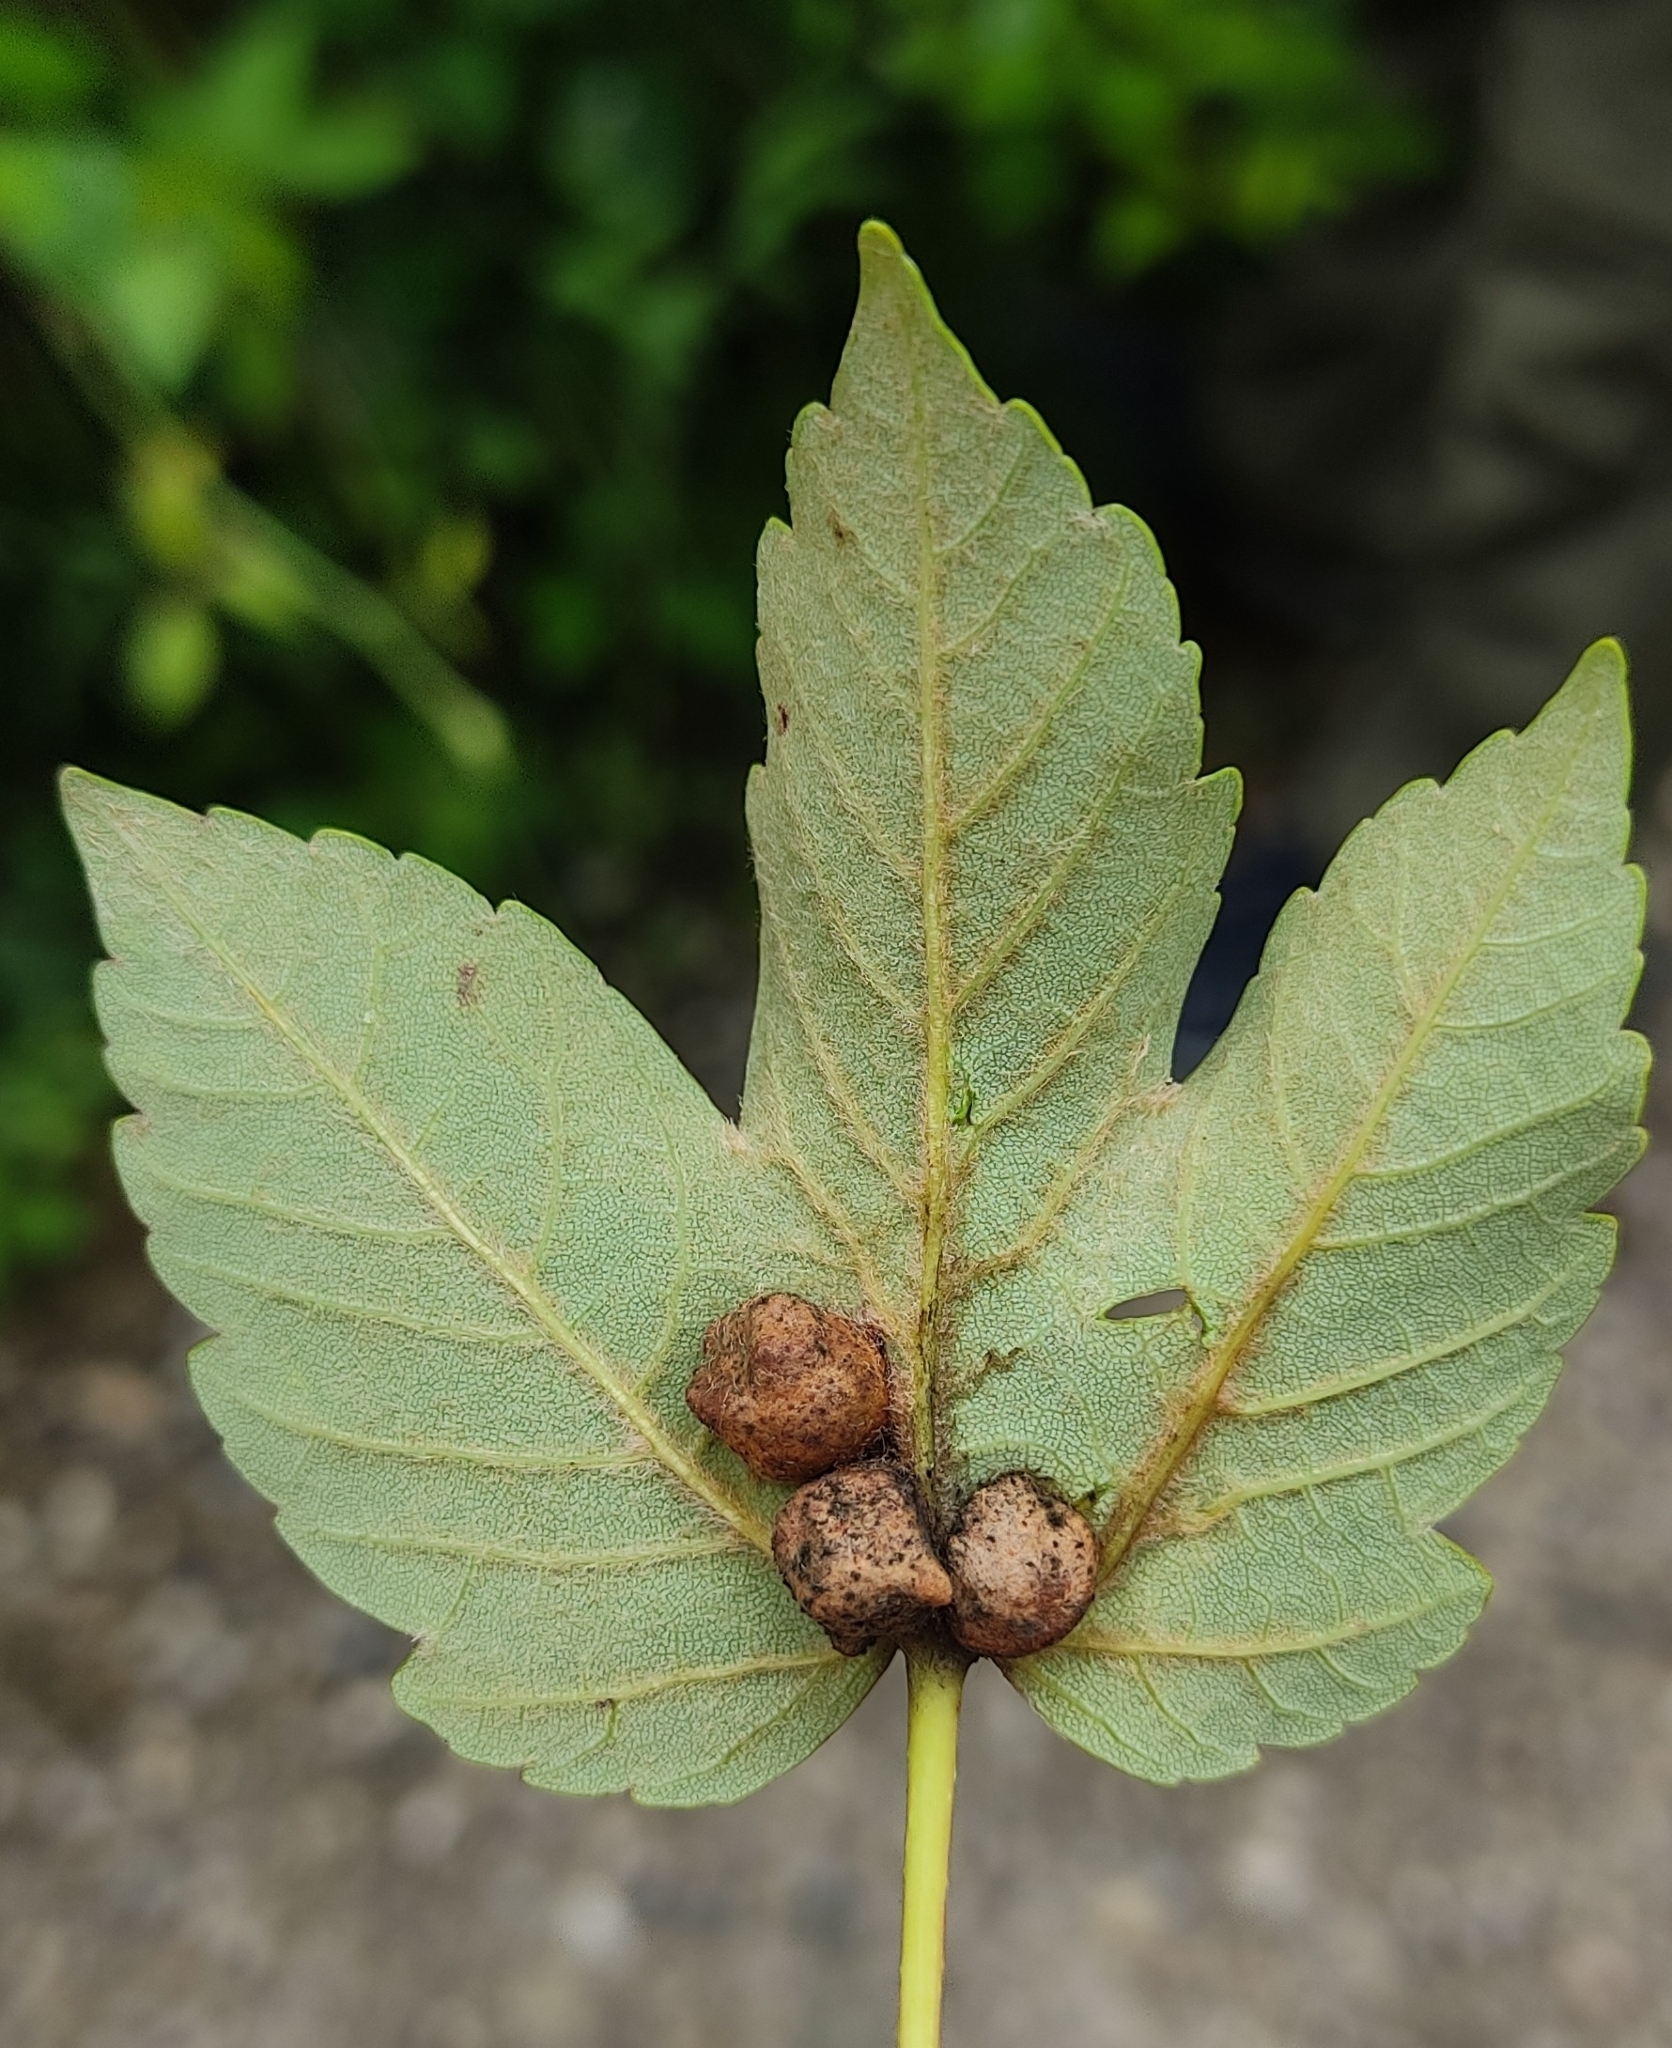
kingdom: Animalia
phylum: Arthropoda
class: Insecta
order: Hymenoptera
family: Cynipidae
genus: Pediaspis
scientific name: Pediaspis aceris
